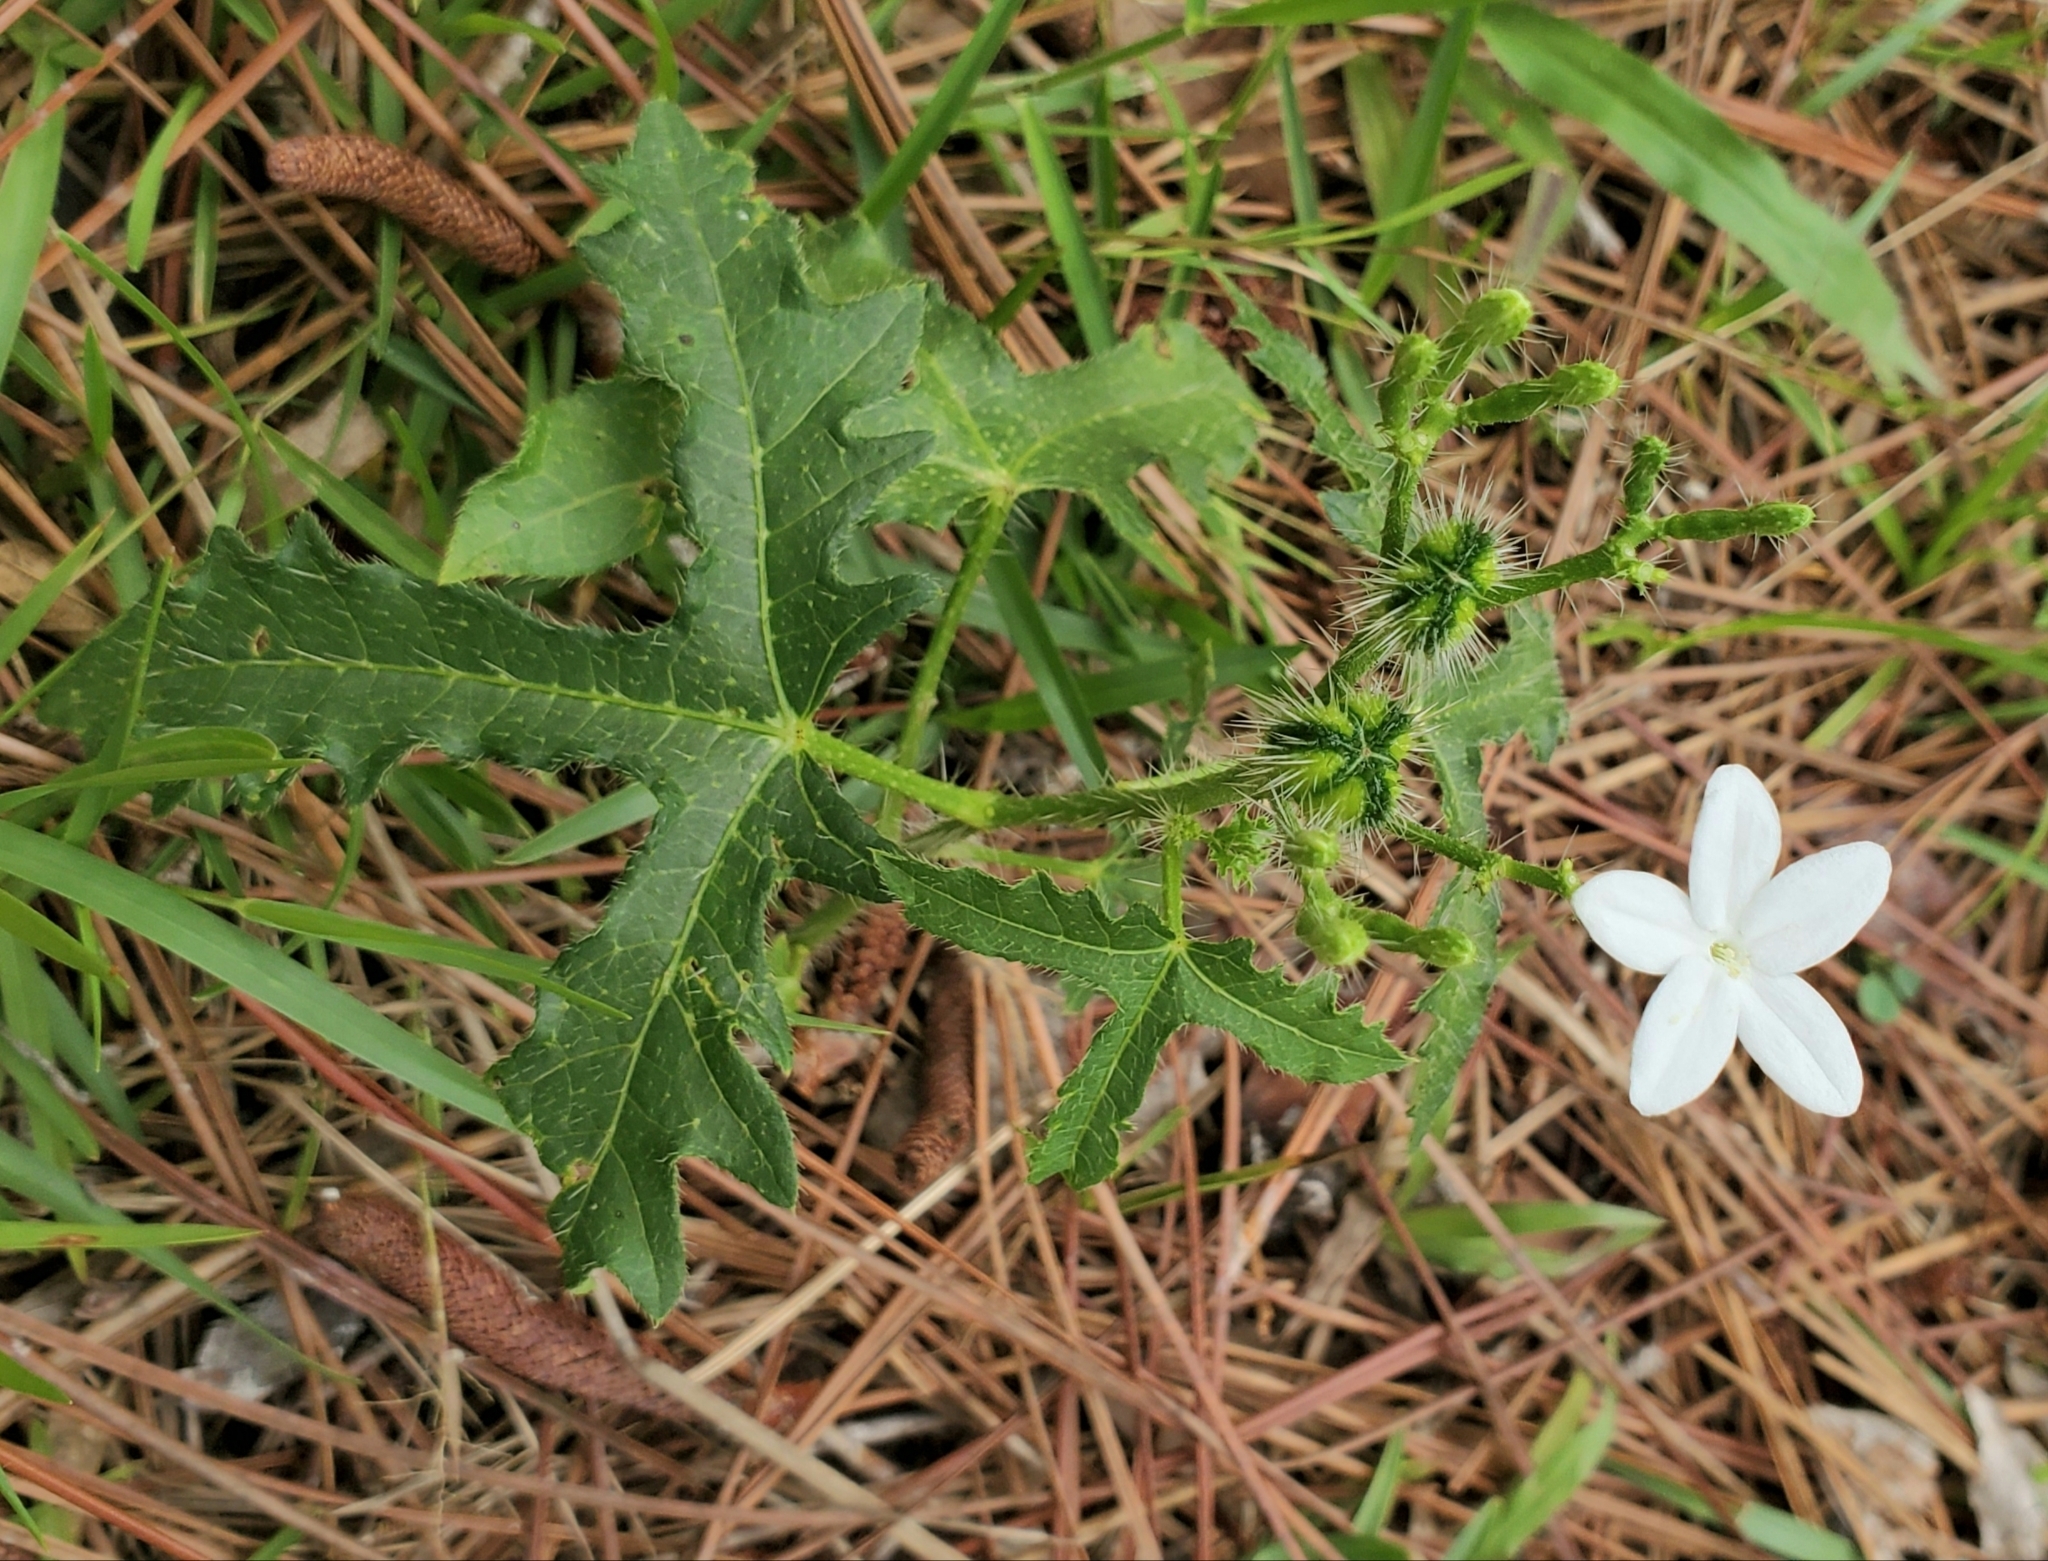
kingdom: Plantae
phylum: Tracheophyta
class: Magnoliopsida
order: Malpighiales
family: Euphorbiaceae
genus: Cnidoscolus
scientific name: Cnidoscolus stimulosus
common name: Bull-nettle
